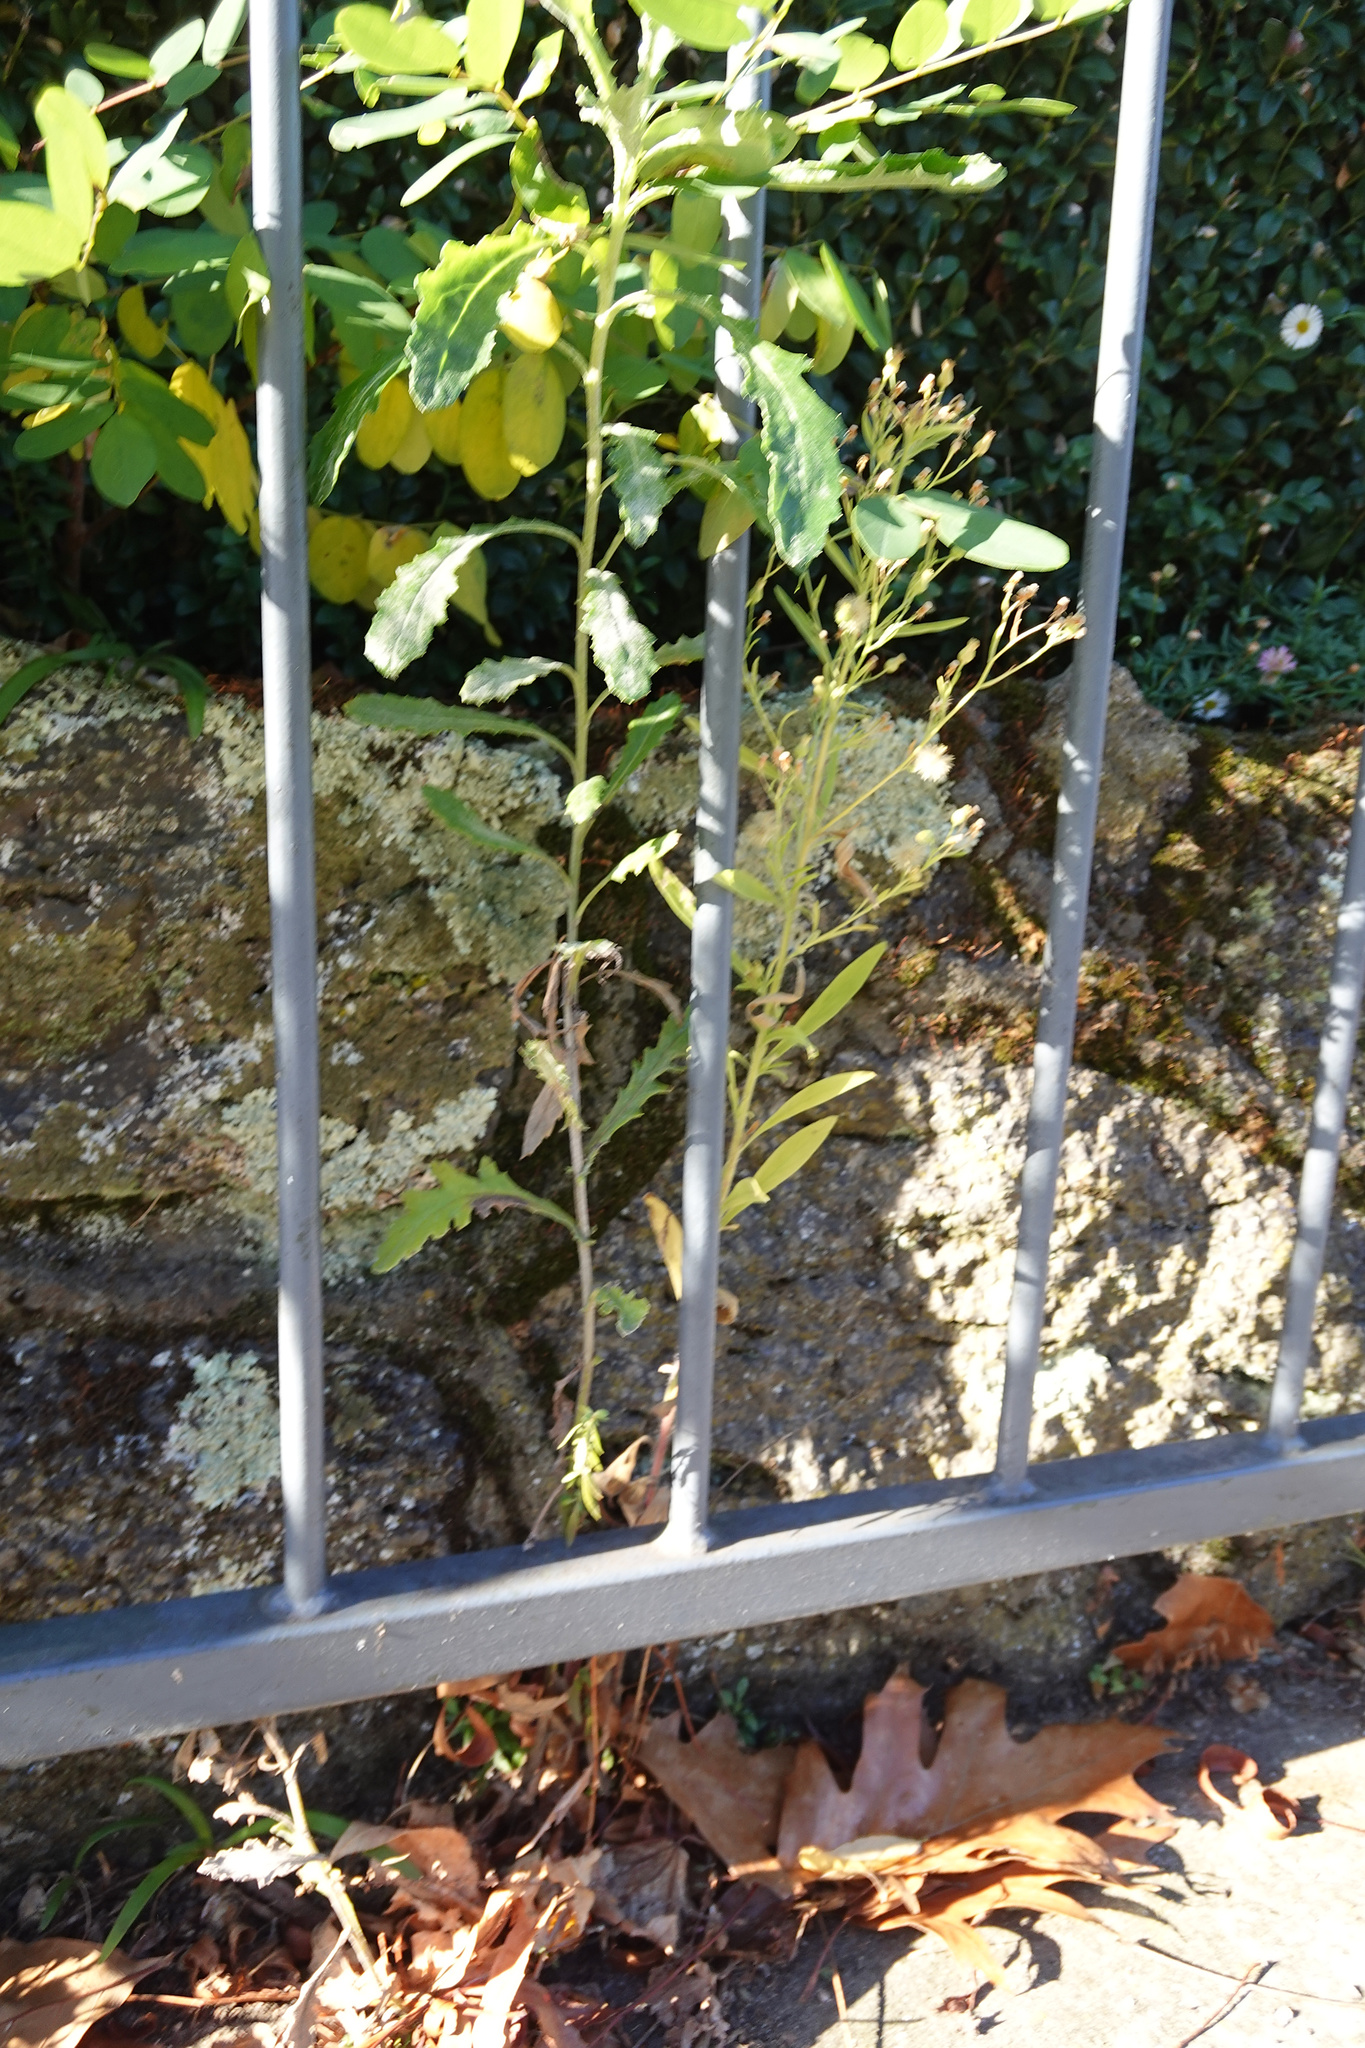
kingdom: Plantae
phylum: Tracheophyta
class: Magnoliopsida
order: Asterales
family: Asteraceae
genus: Erigeron
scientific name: Erigeron sumatrensis
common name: Daisy
